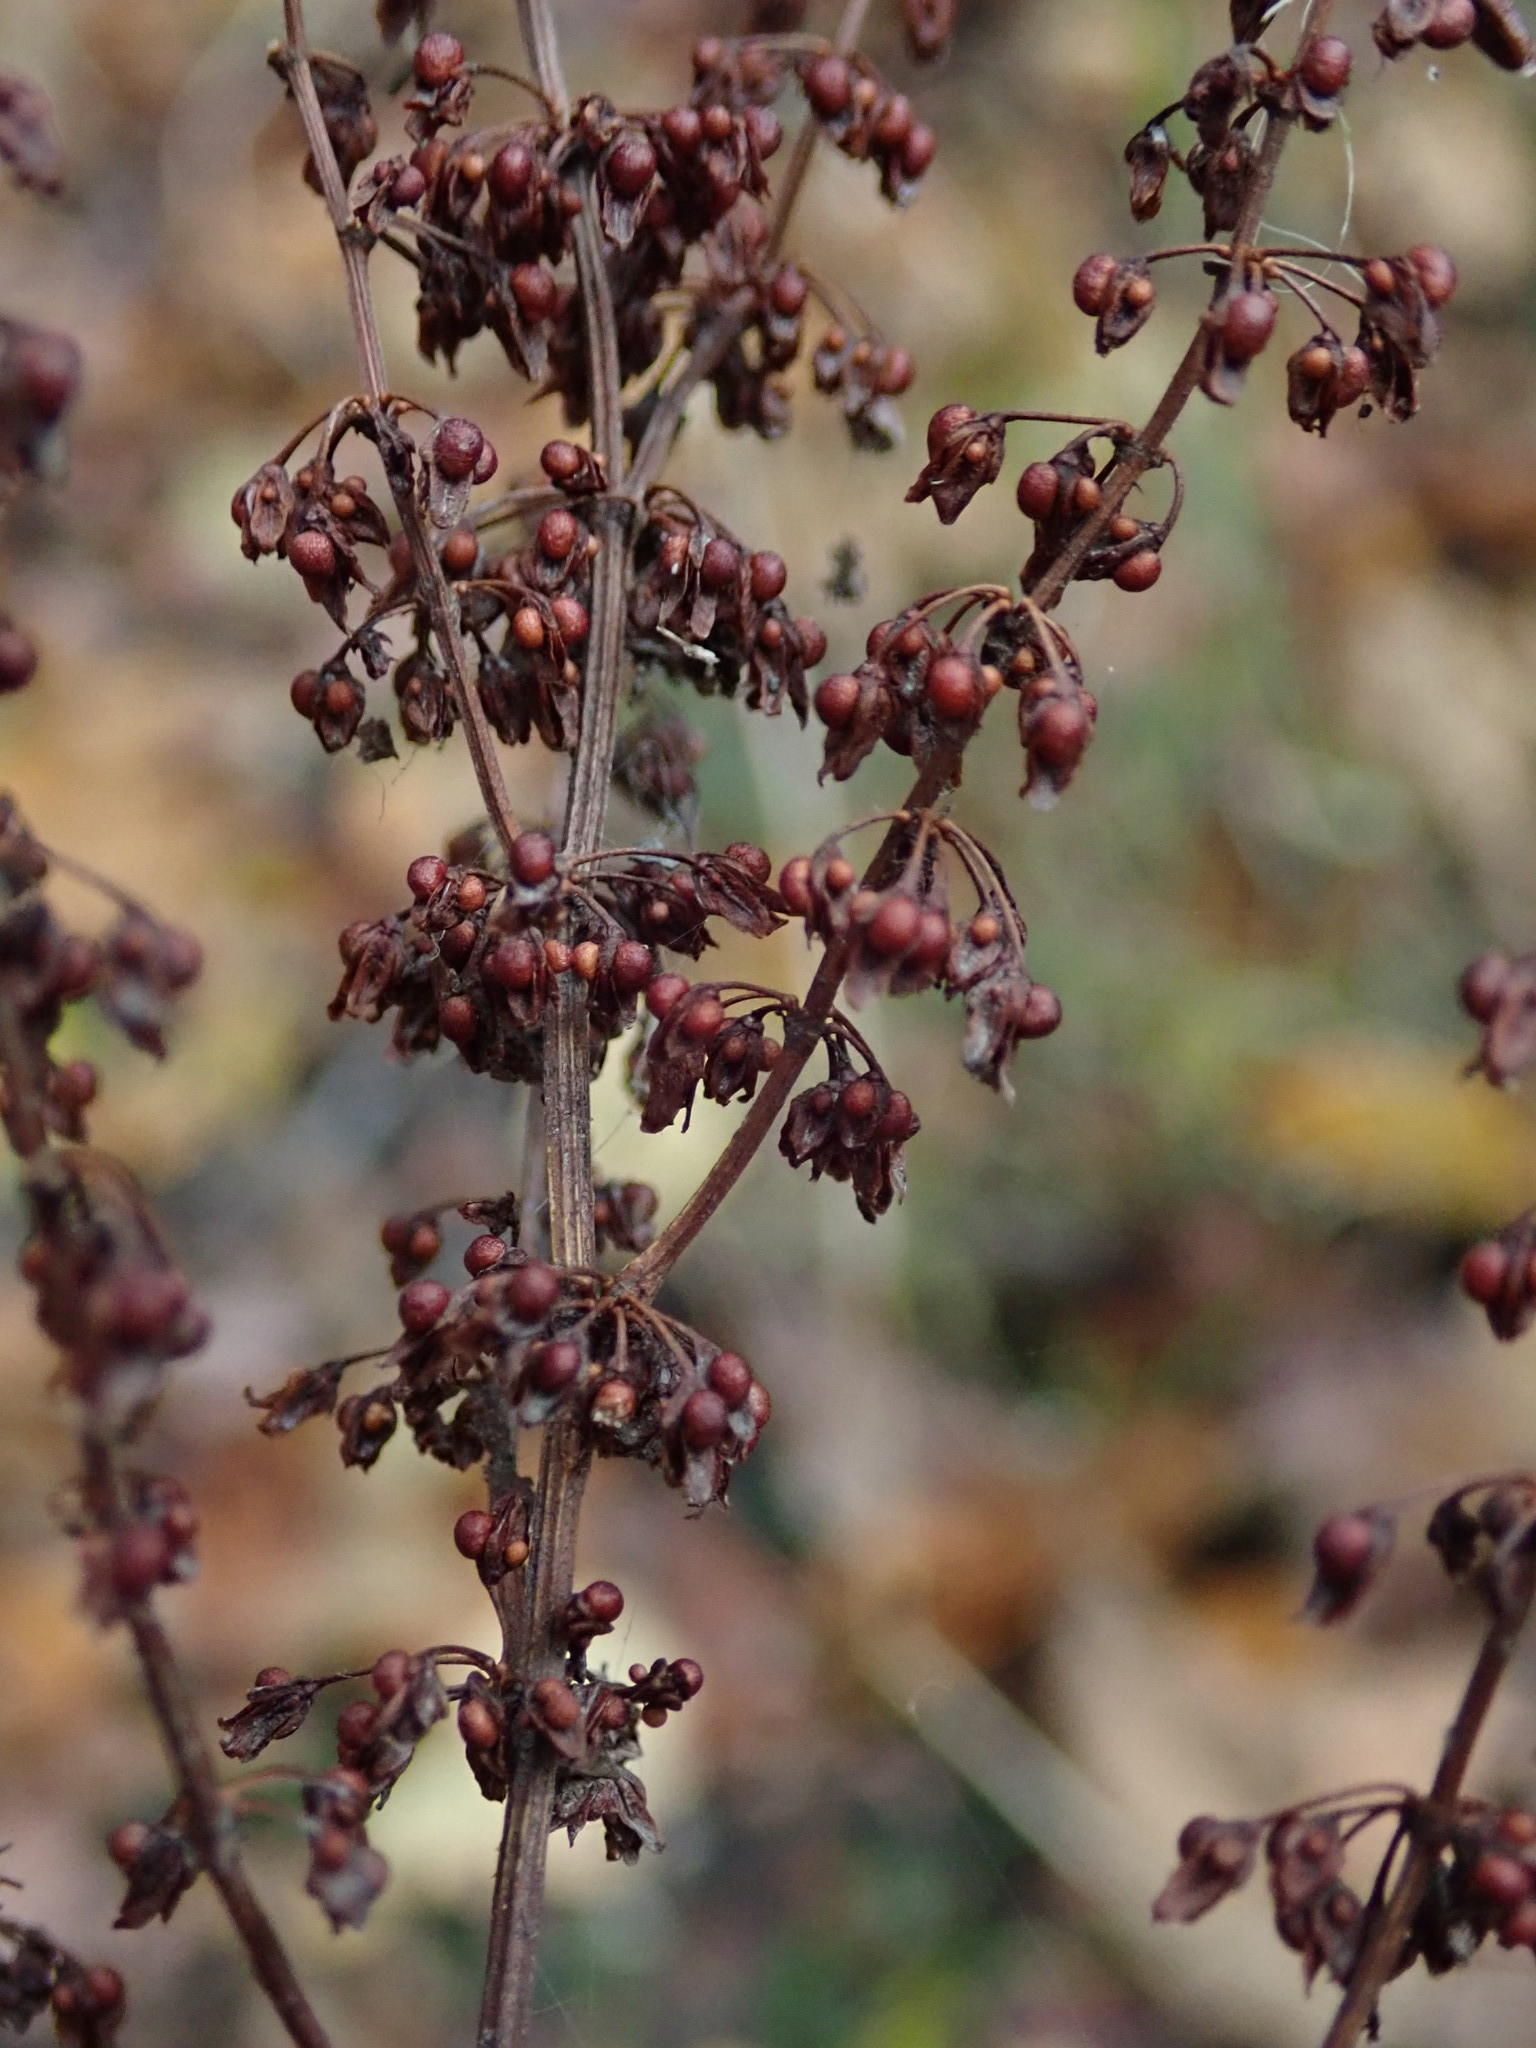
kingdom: Plantae
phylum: Tracheophyta
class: Magnoliopsida
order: Caryophyllales
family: Polygonaceae
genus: Rumex
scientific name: Rumex sanguineus
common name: Wood dock
